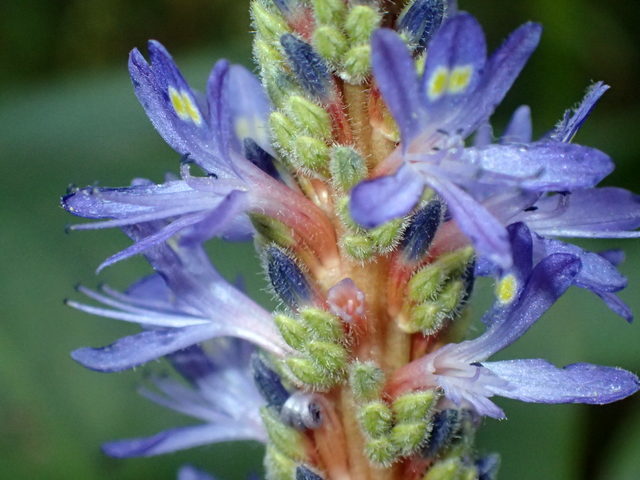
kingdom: Plantae
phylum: Tracheophyta
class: Liliopsida
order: Commelinales
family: Pontederiaceae
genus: Pontederia
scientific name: Pontederia cordata
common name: Pickerelweed
